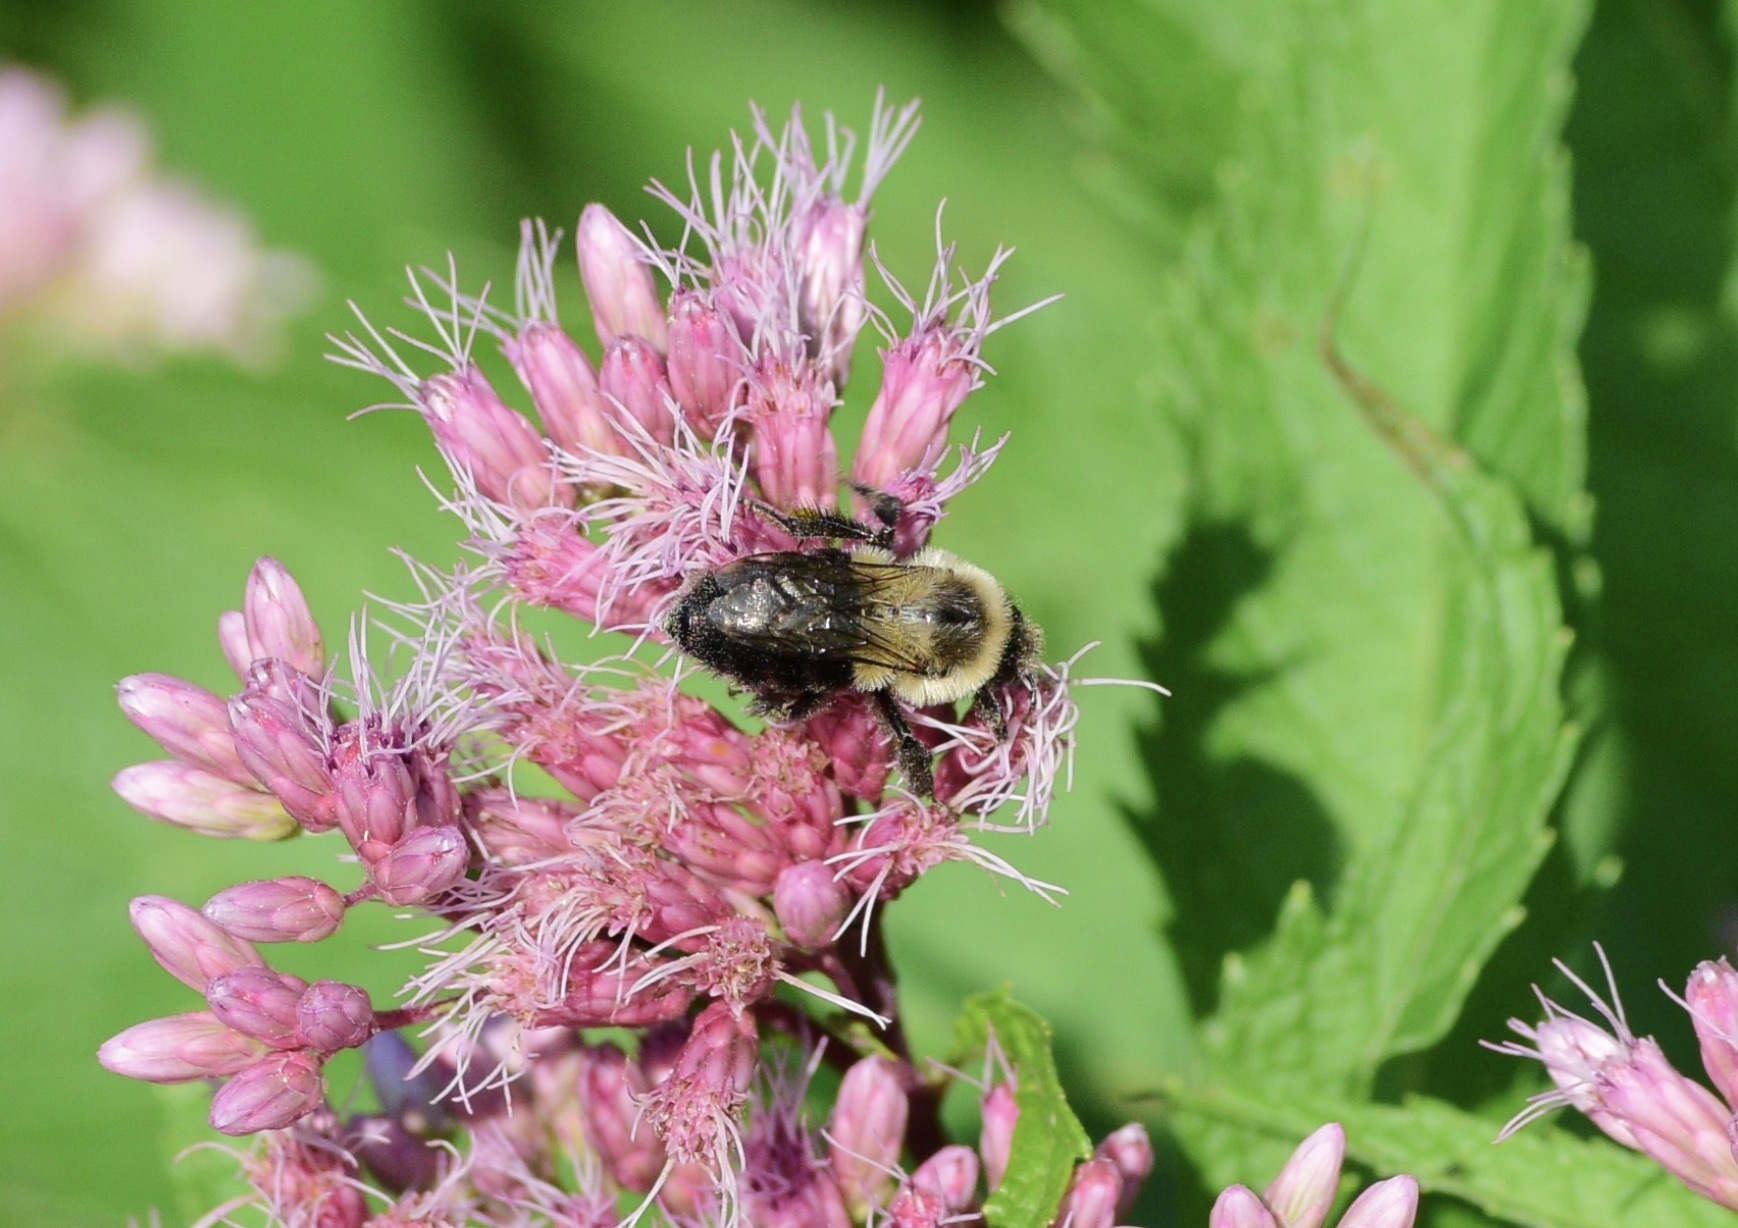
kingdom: Animalia
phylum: Arthropoda
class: Insecta
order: Hymenoptera
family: Apidae
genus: Bombus
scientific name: Bombus impatiens
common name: Common eastern bumble bee
